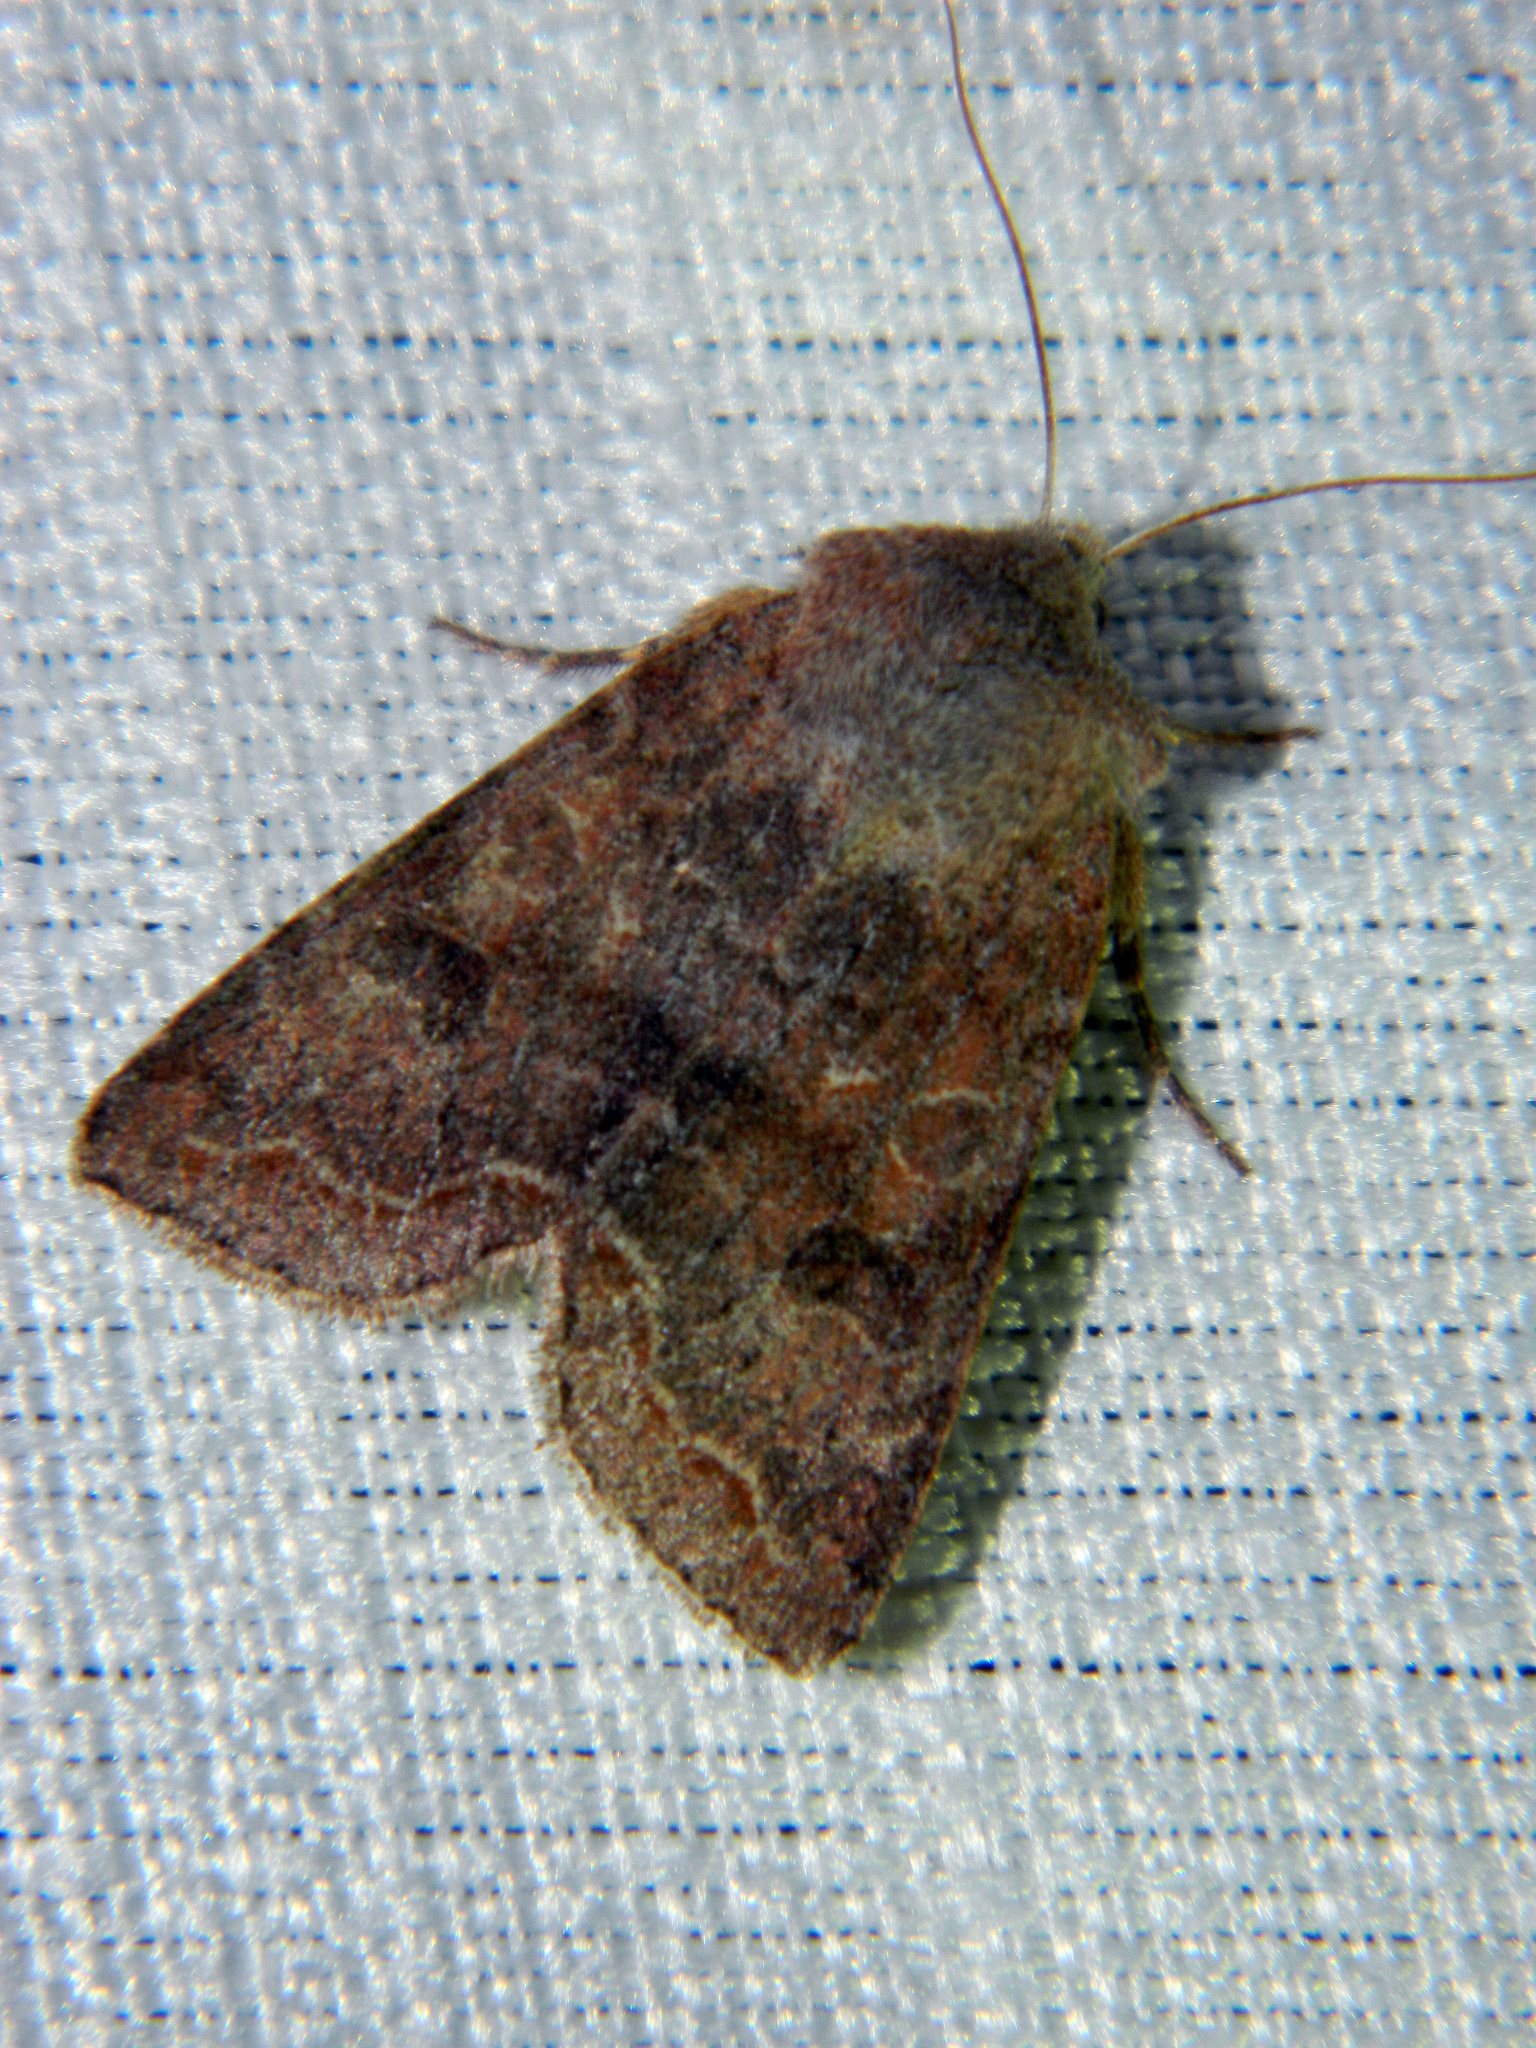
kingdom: Animalia
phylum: Arthropoda
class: Insecta
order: Lepidoptera
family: Noctuidae
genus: Orthosia
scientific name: Orthosia revicta
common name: Rusty whitesided caterpillar
